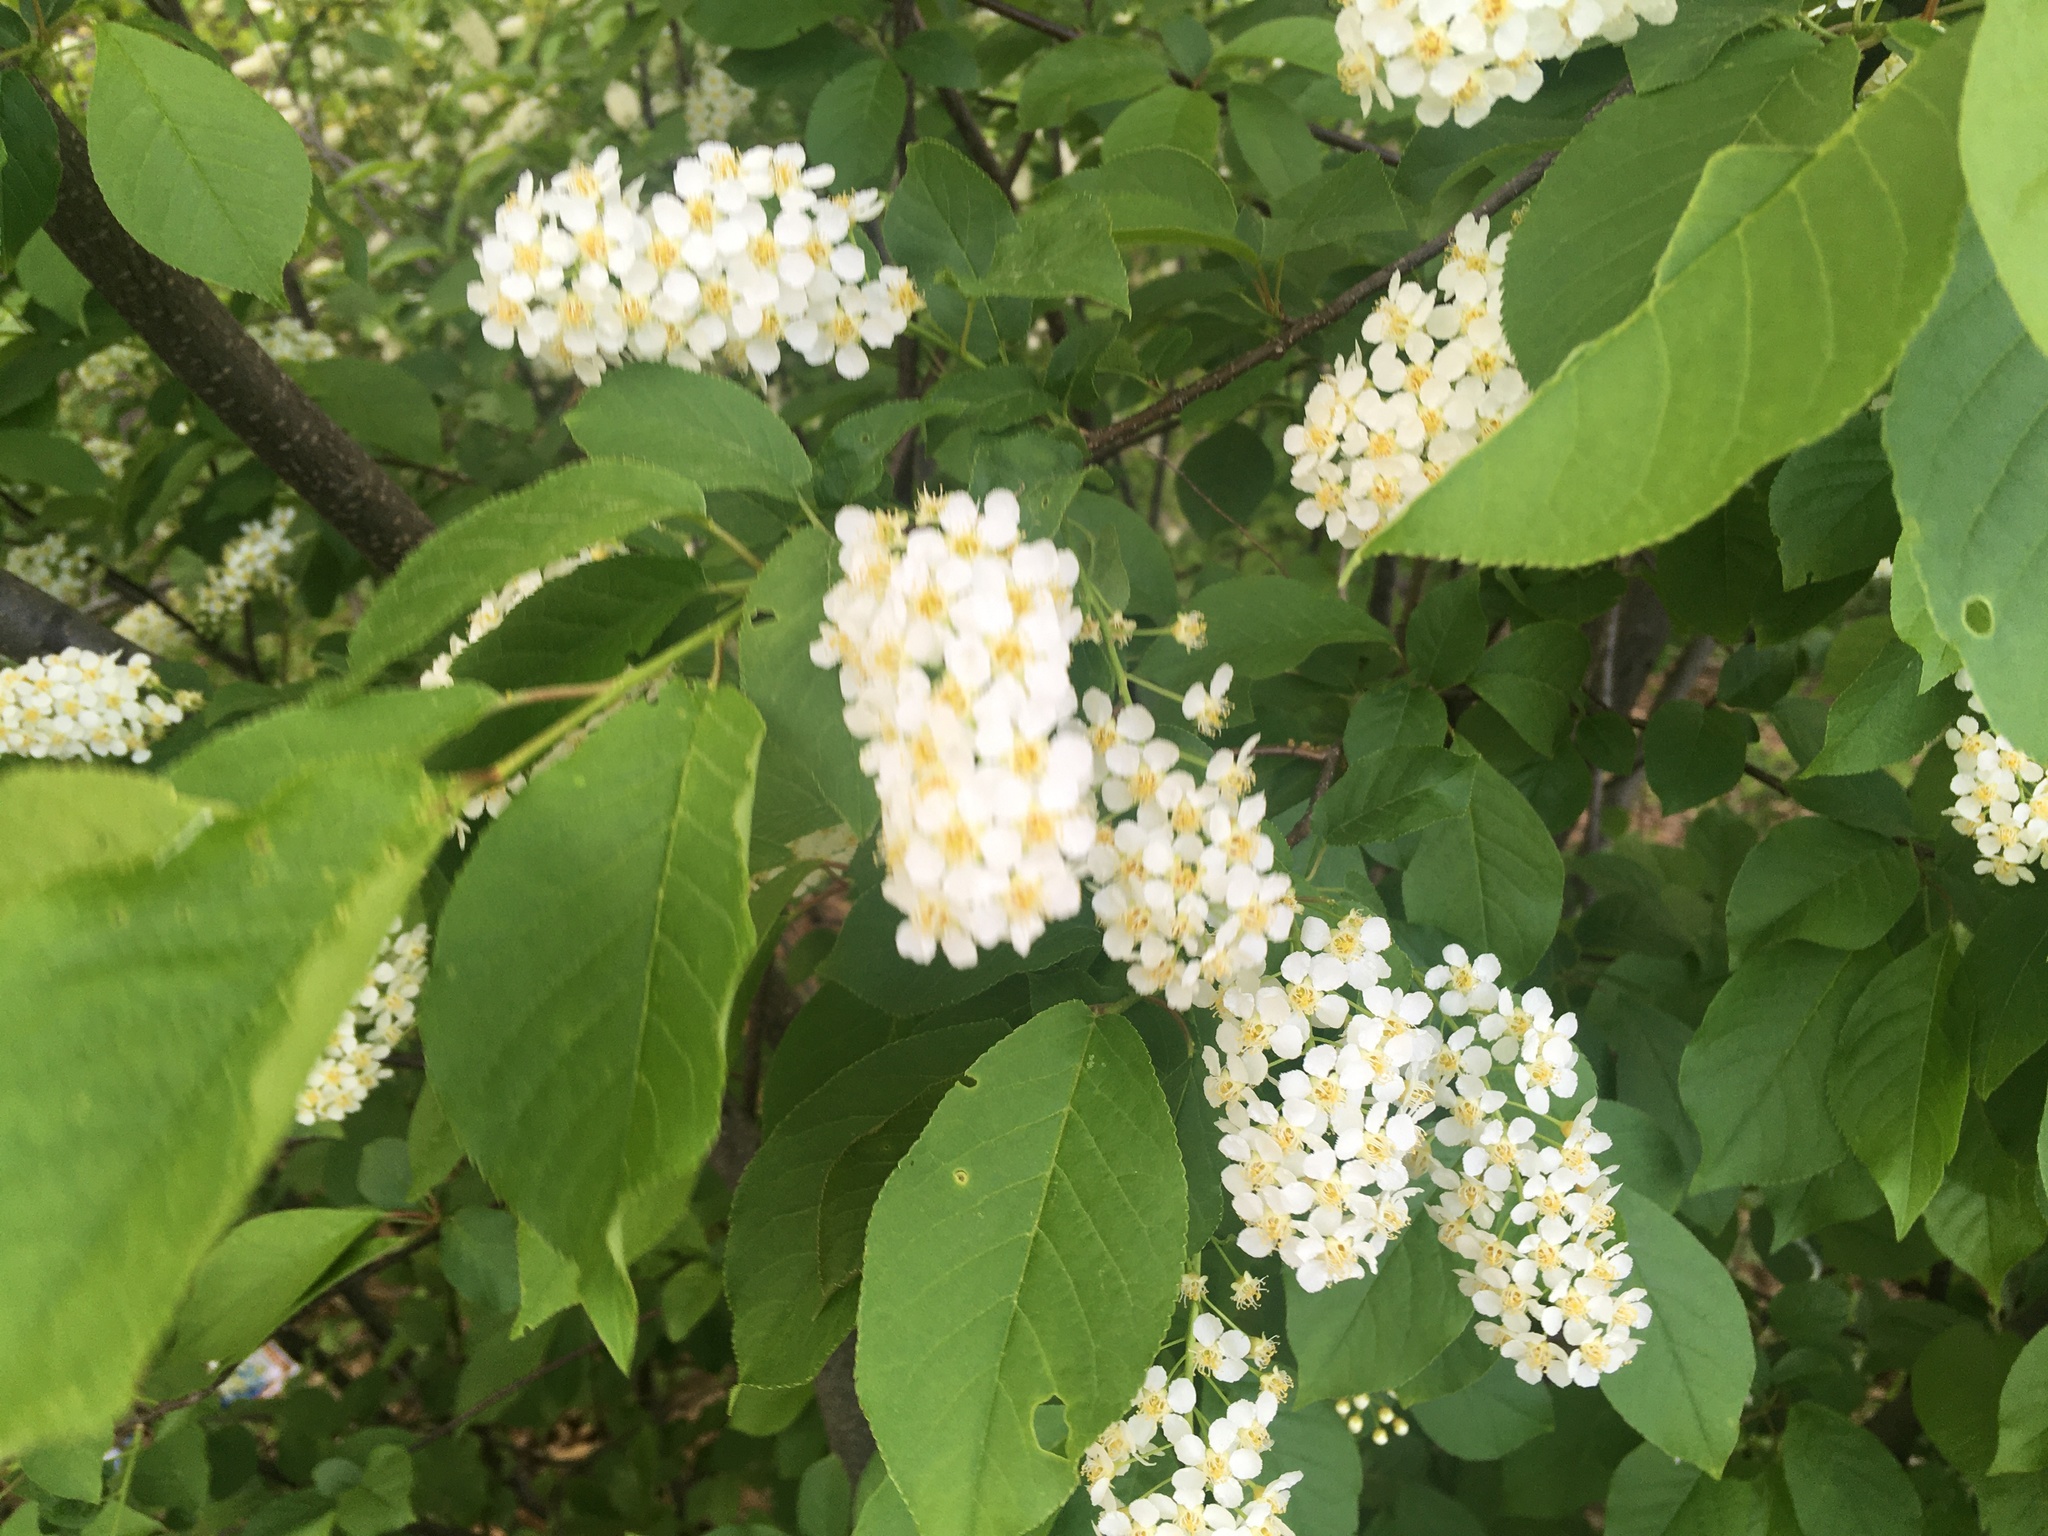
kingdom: Plantae
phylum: Tracheophyta
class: Magnoliopsida
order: Rosales
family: Rosaceae
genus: Prunus
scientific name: Prunus virginiana
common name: Chokecherry
